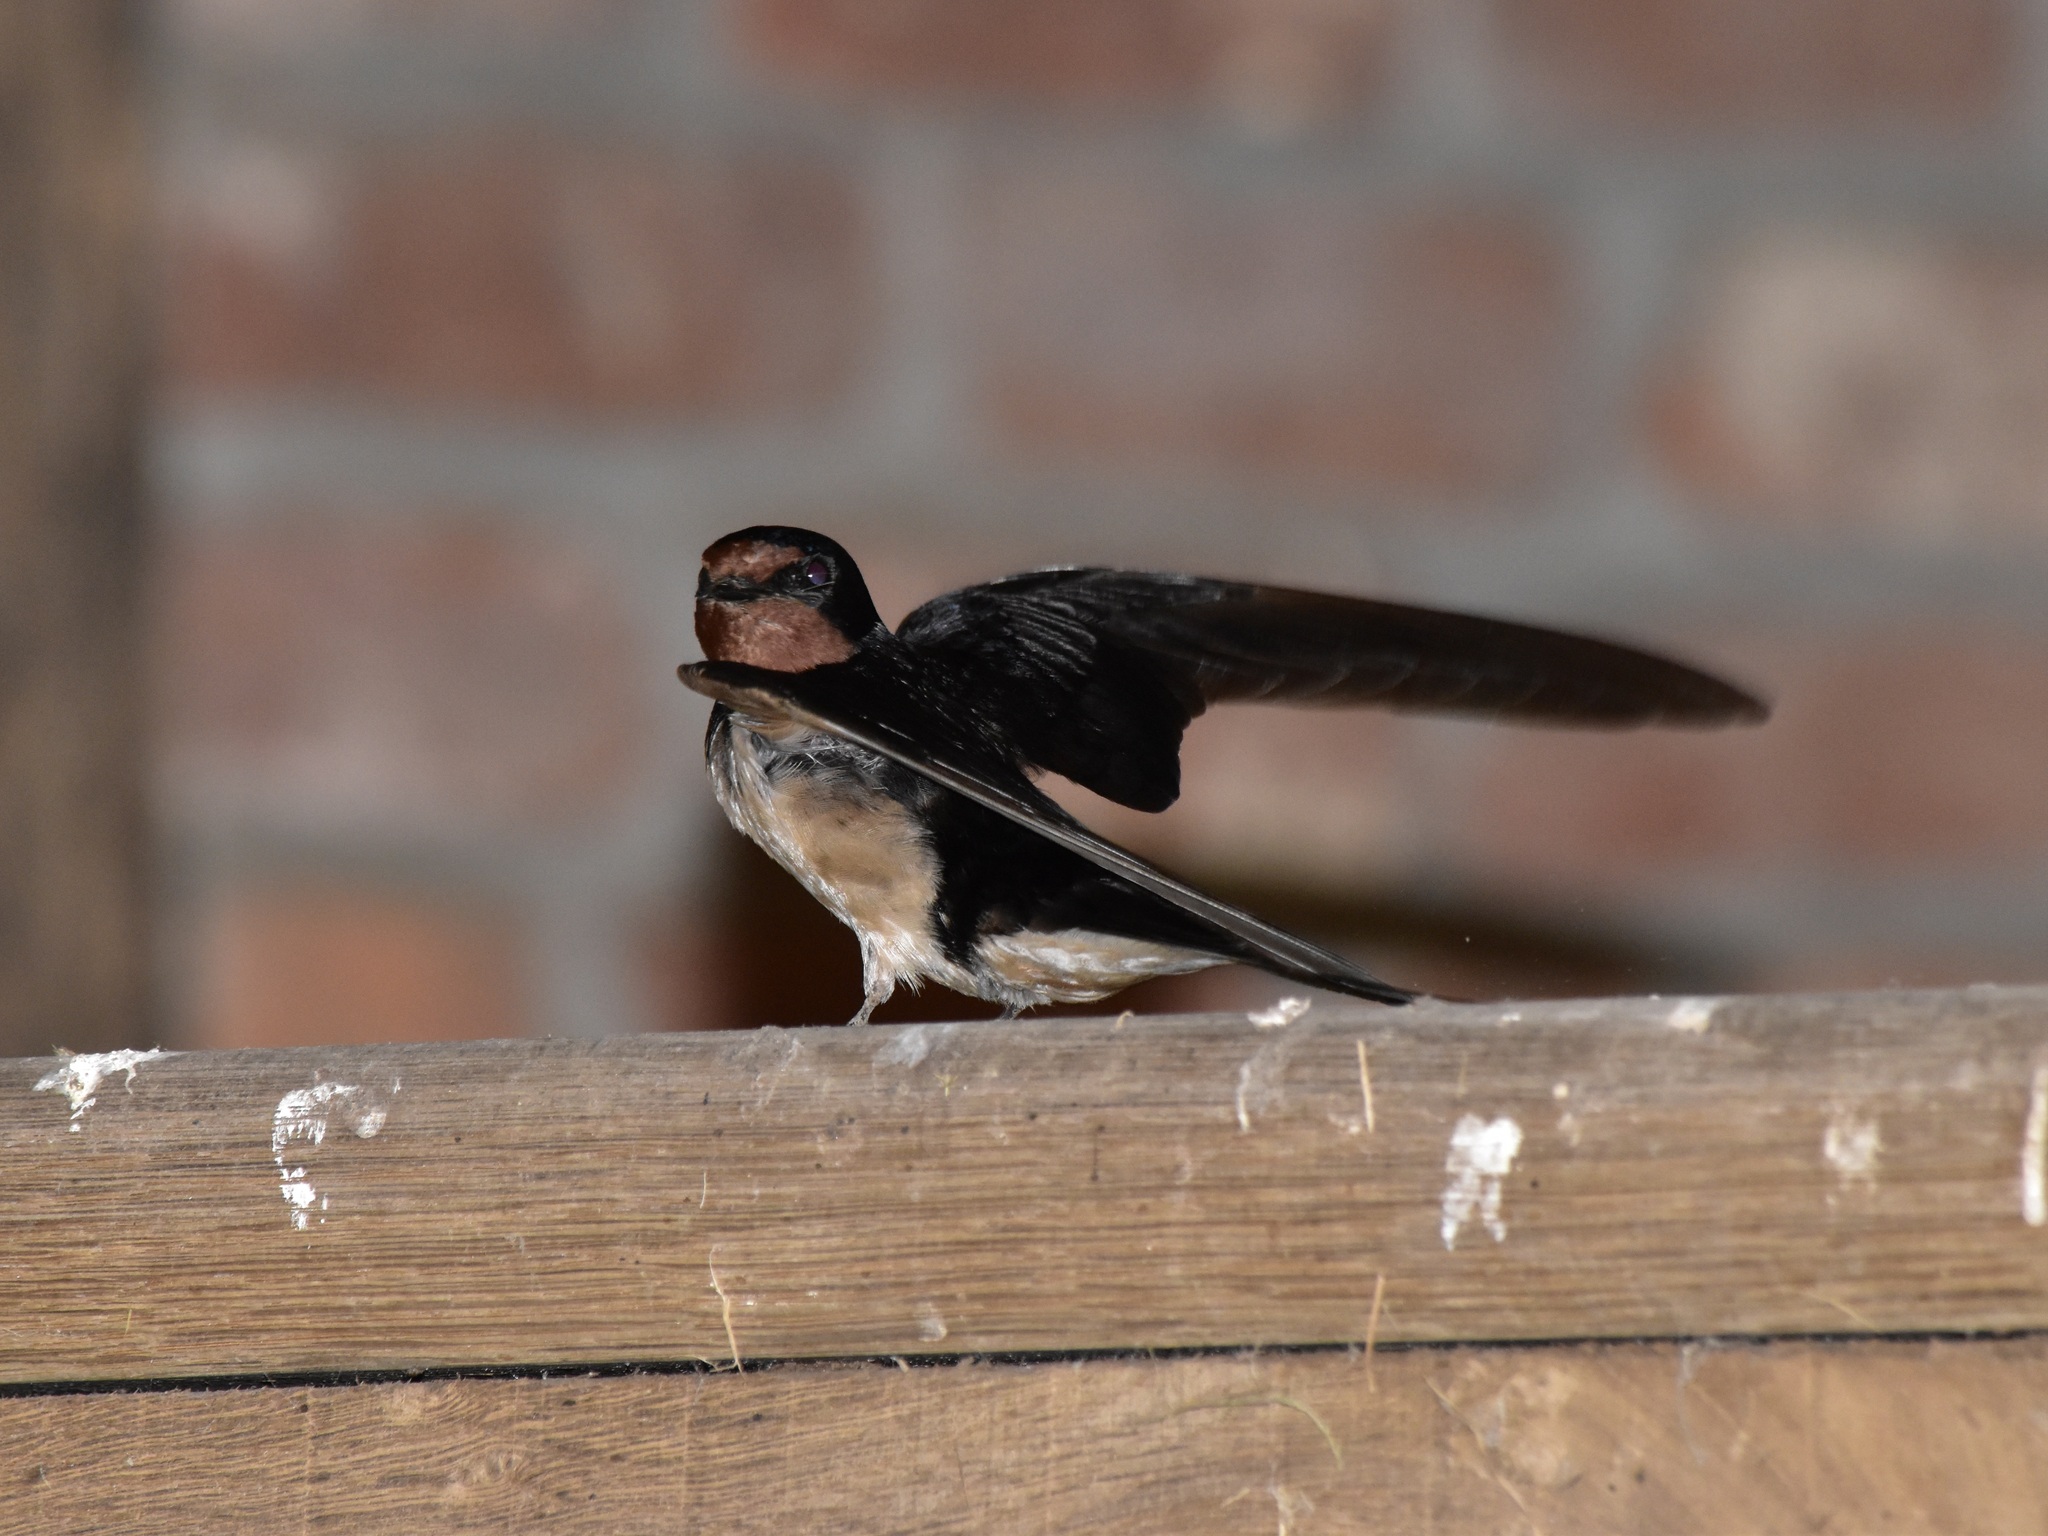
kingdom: Animalia
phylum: Chordata
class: Aves
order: Passeriformes
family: Hirundinidae
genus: Hirundo
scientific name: Hirundo rustica
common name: Barn swallow
